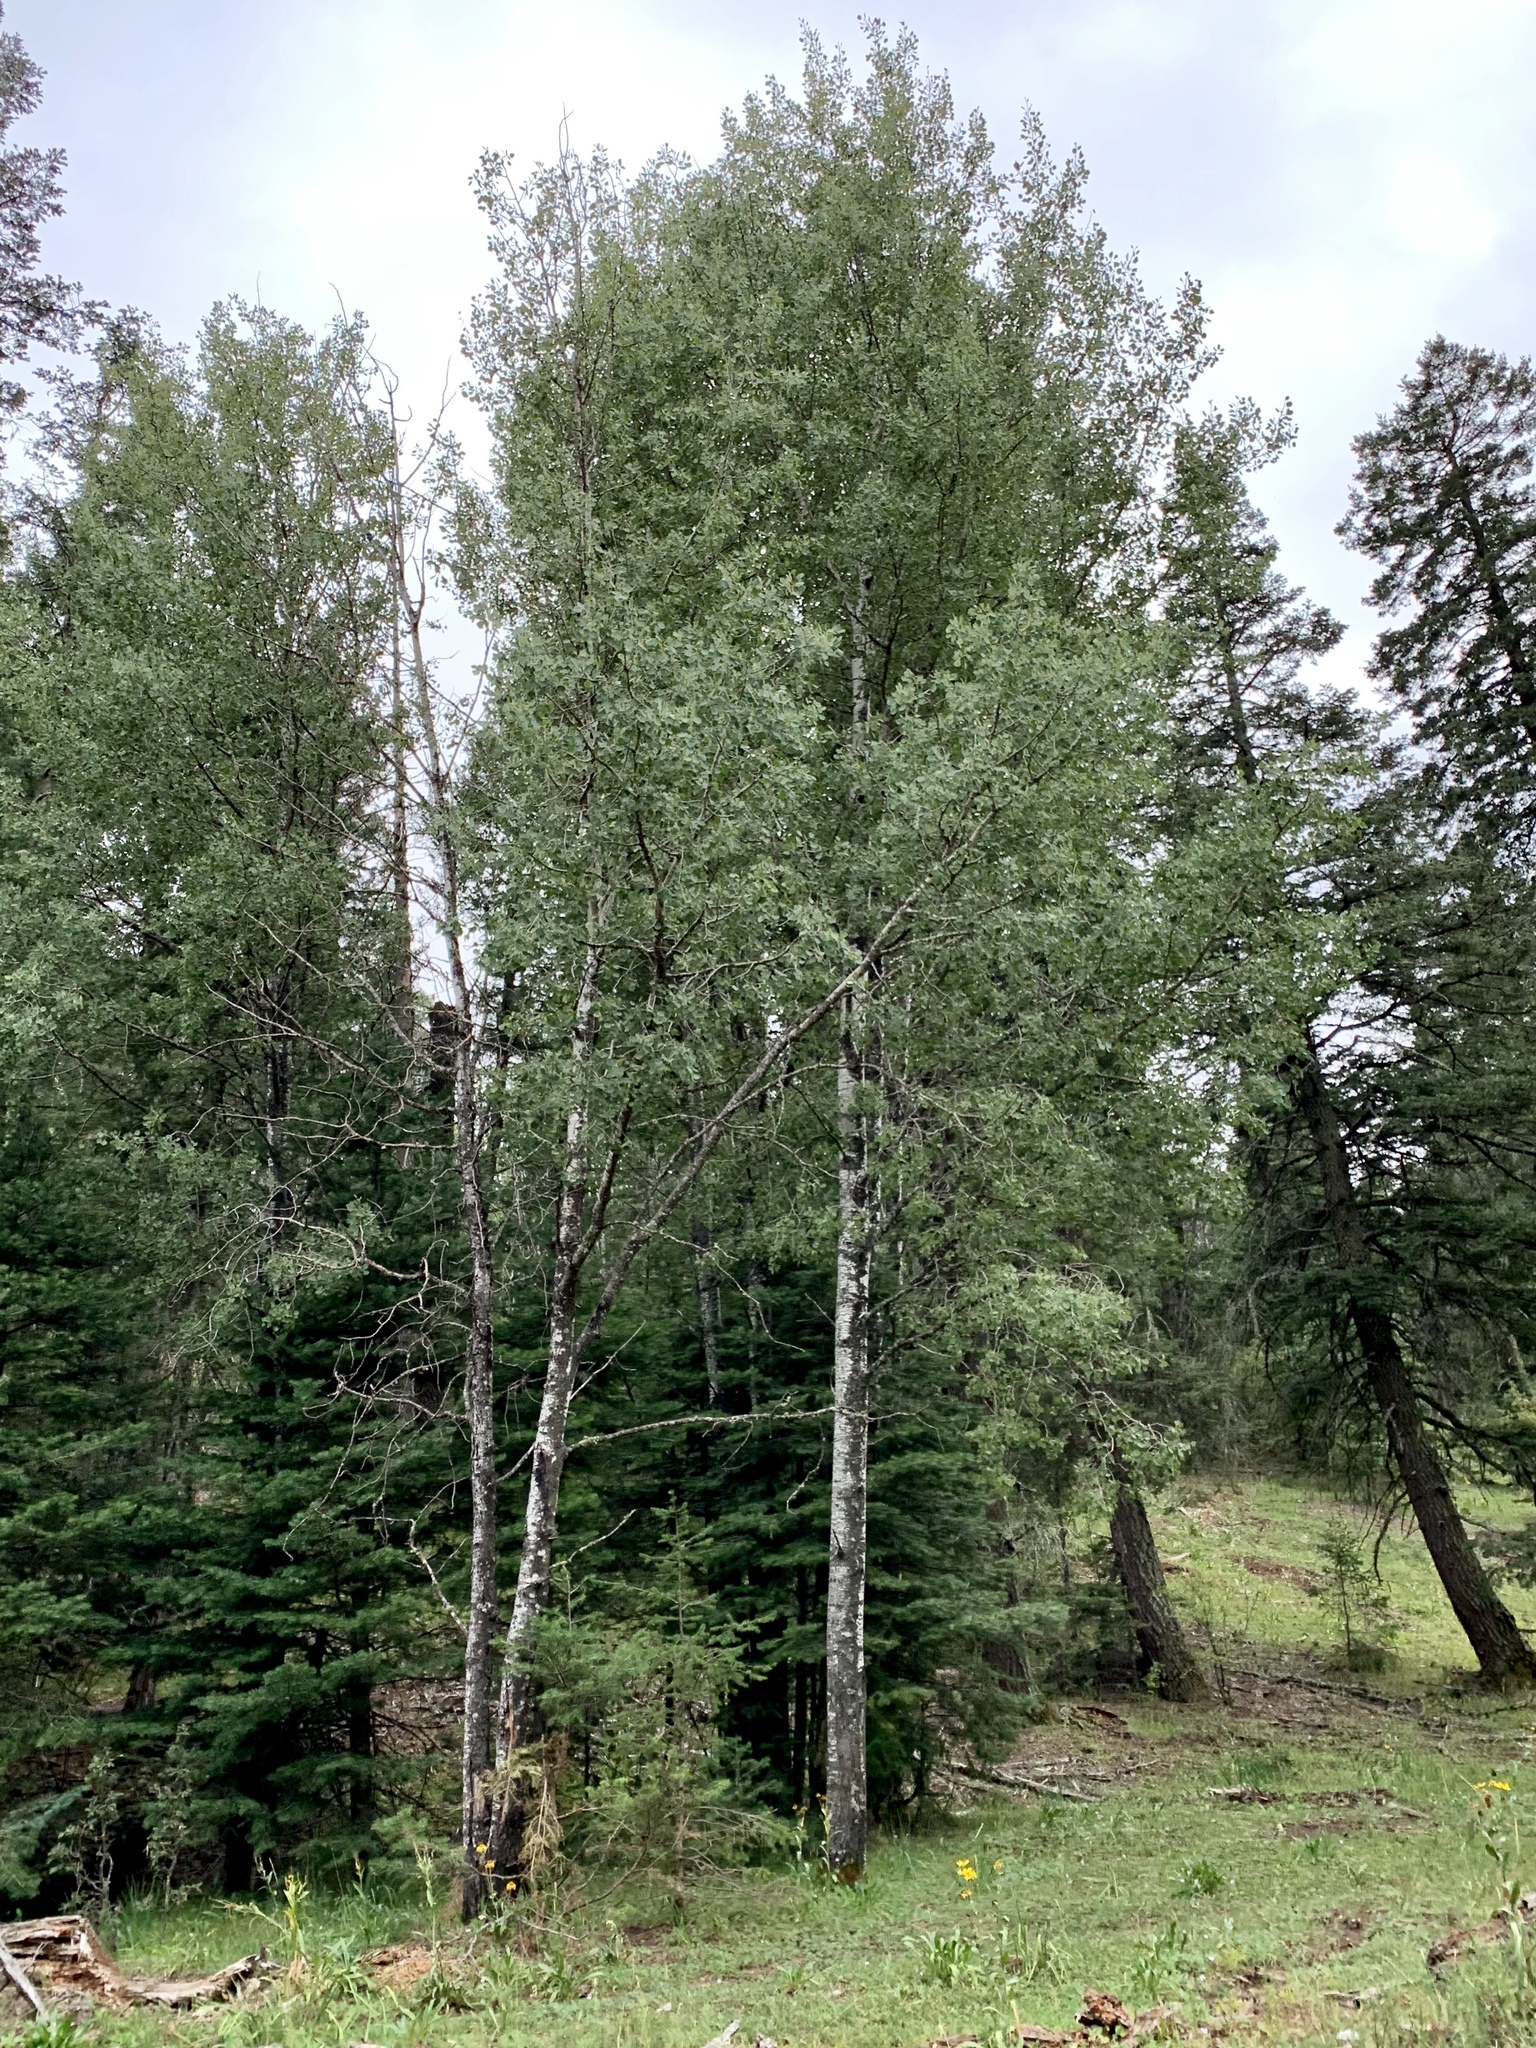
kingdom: Plantae
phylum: Tracheophyta
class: Magnoliopsida
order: Malpighiales
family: Salicaceae
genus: Populus
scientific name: Populus tremuloides
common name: Quaking aspen
